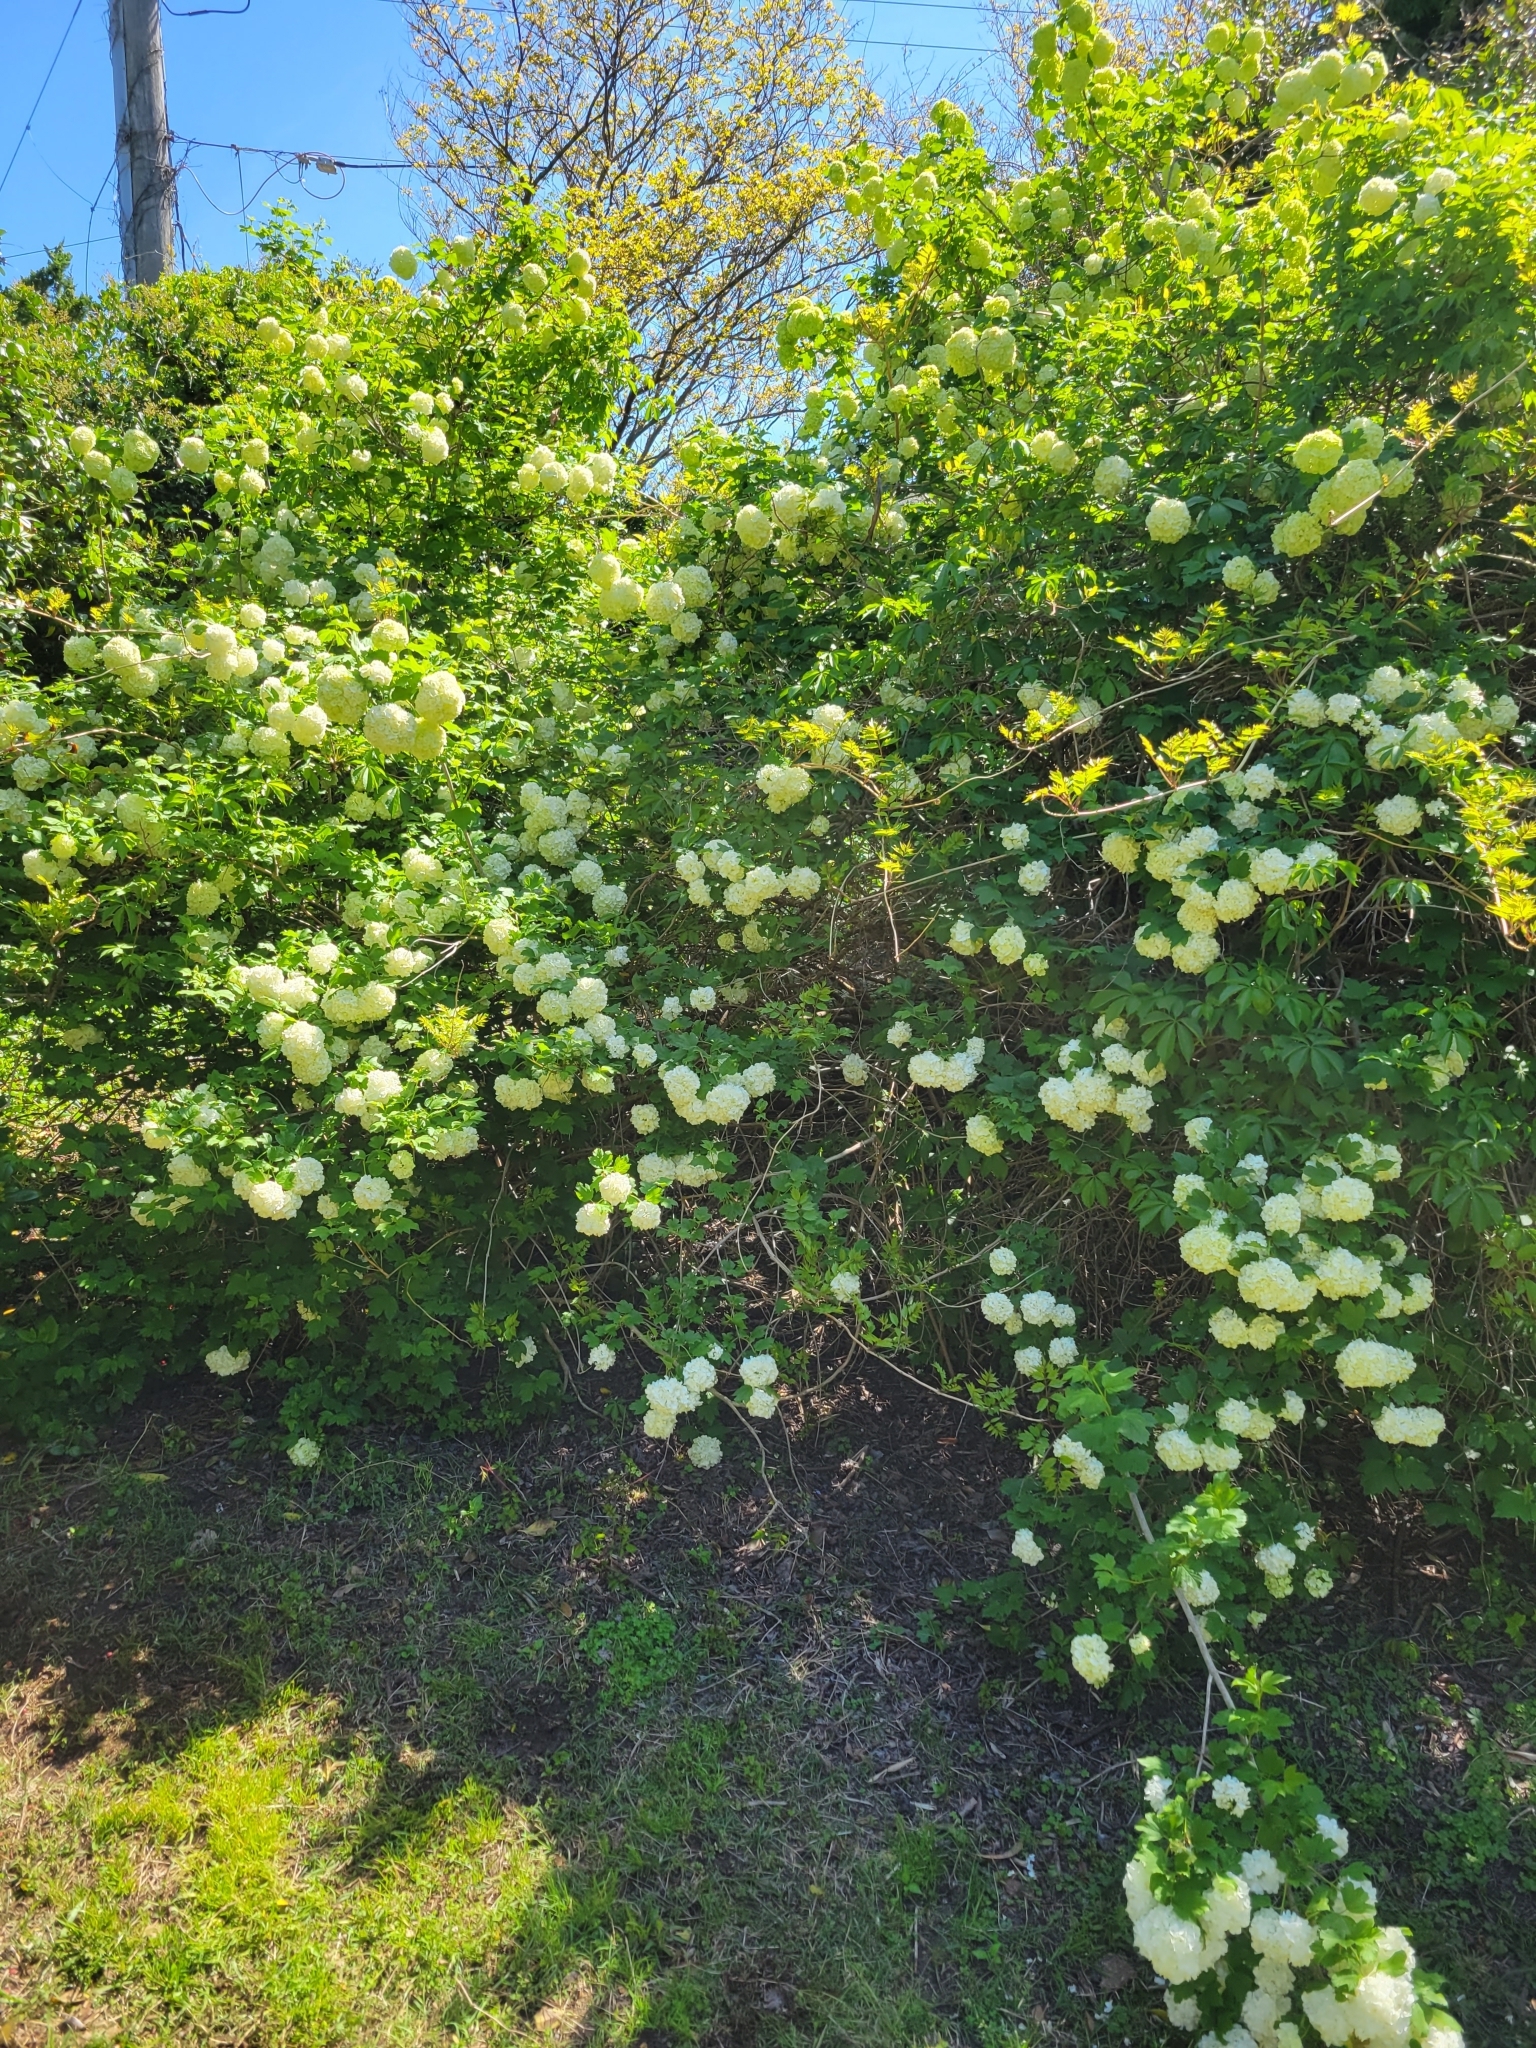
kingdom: Plantae
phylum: Tracheophyta
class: Magnoliopsida
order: Dipsacales
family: Viburnaceae
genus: Viburnum
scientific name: Viburnum opulus
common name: Guelder-rose
